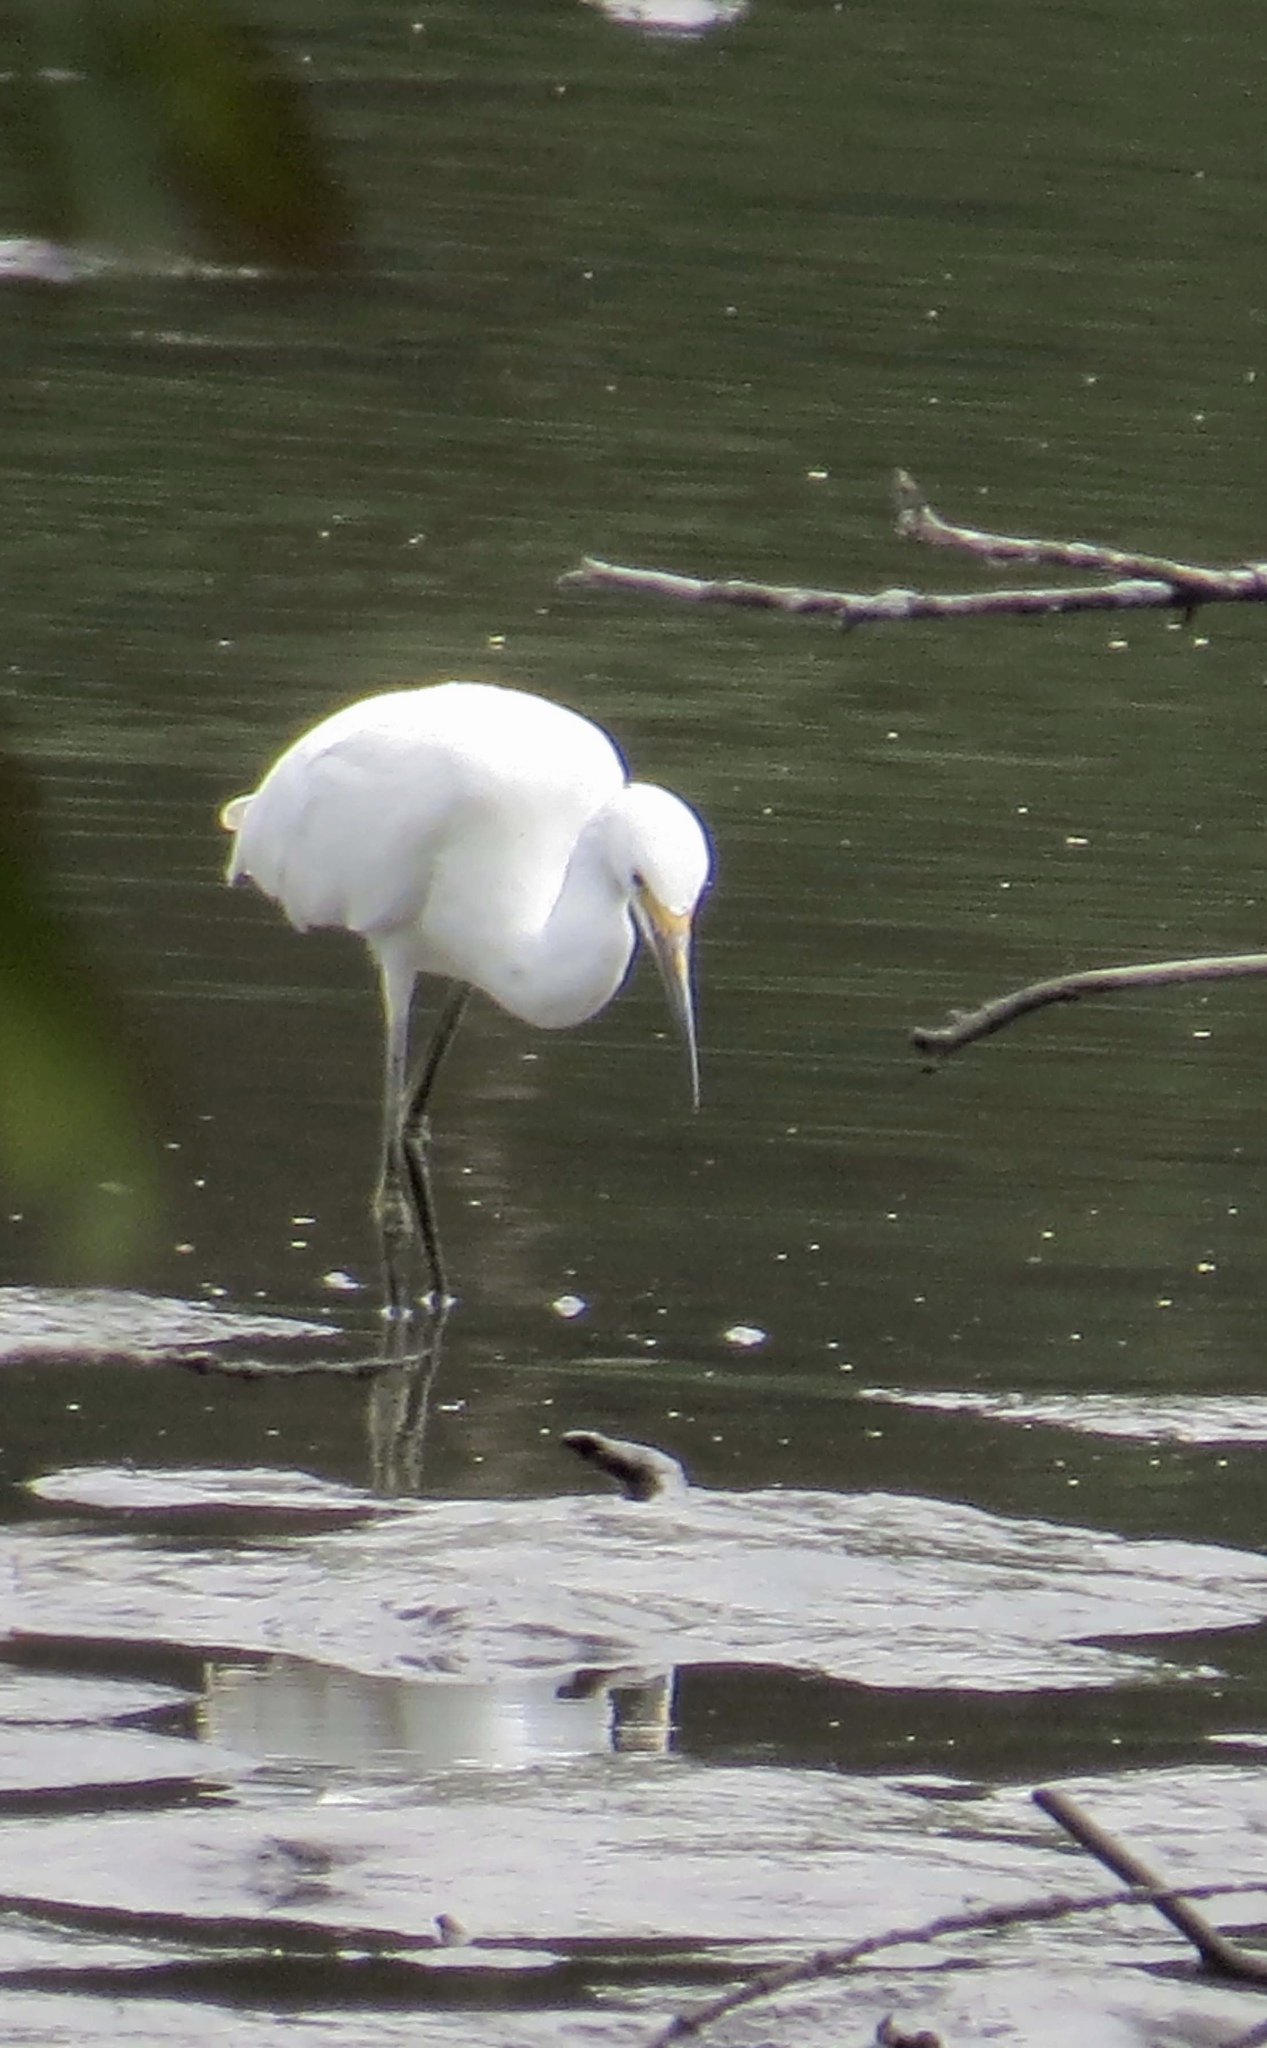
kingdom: Animalia
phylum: Chordata
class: Aves
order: Pelecaniformes
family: Ardeidae
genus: Egretta
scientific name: Egretta thula
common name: Snowy egret
